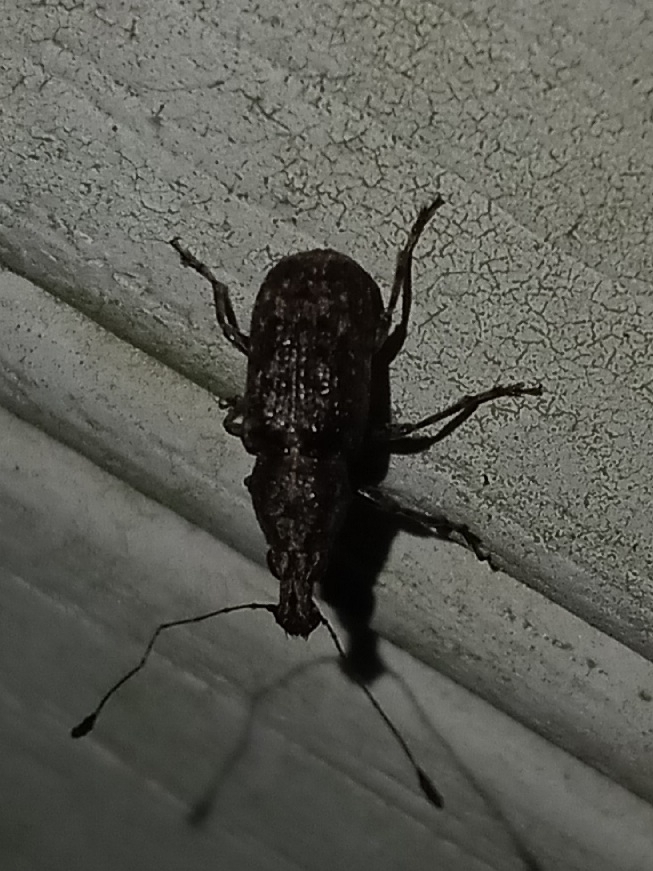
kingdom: Animalia
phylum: Arthropoda
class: Insecta
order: Coleoptera
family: Anthribidae
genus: Meconemus
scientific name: Meconemus infuscatus
